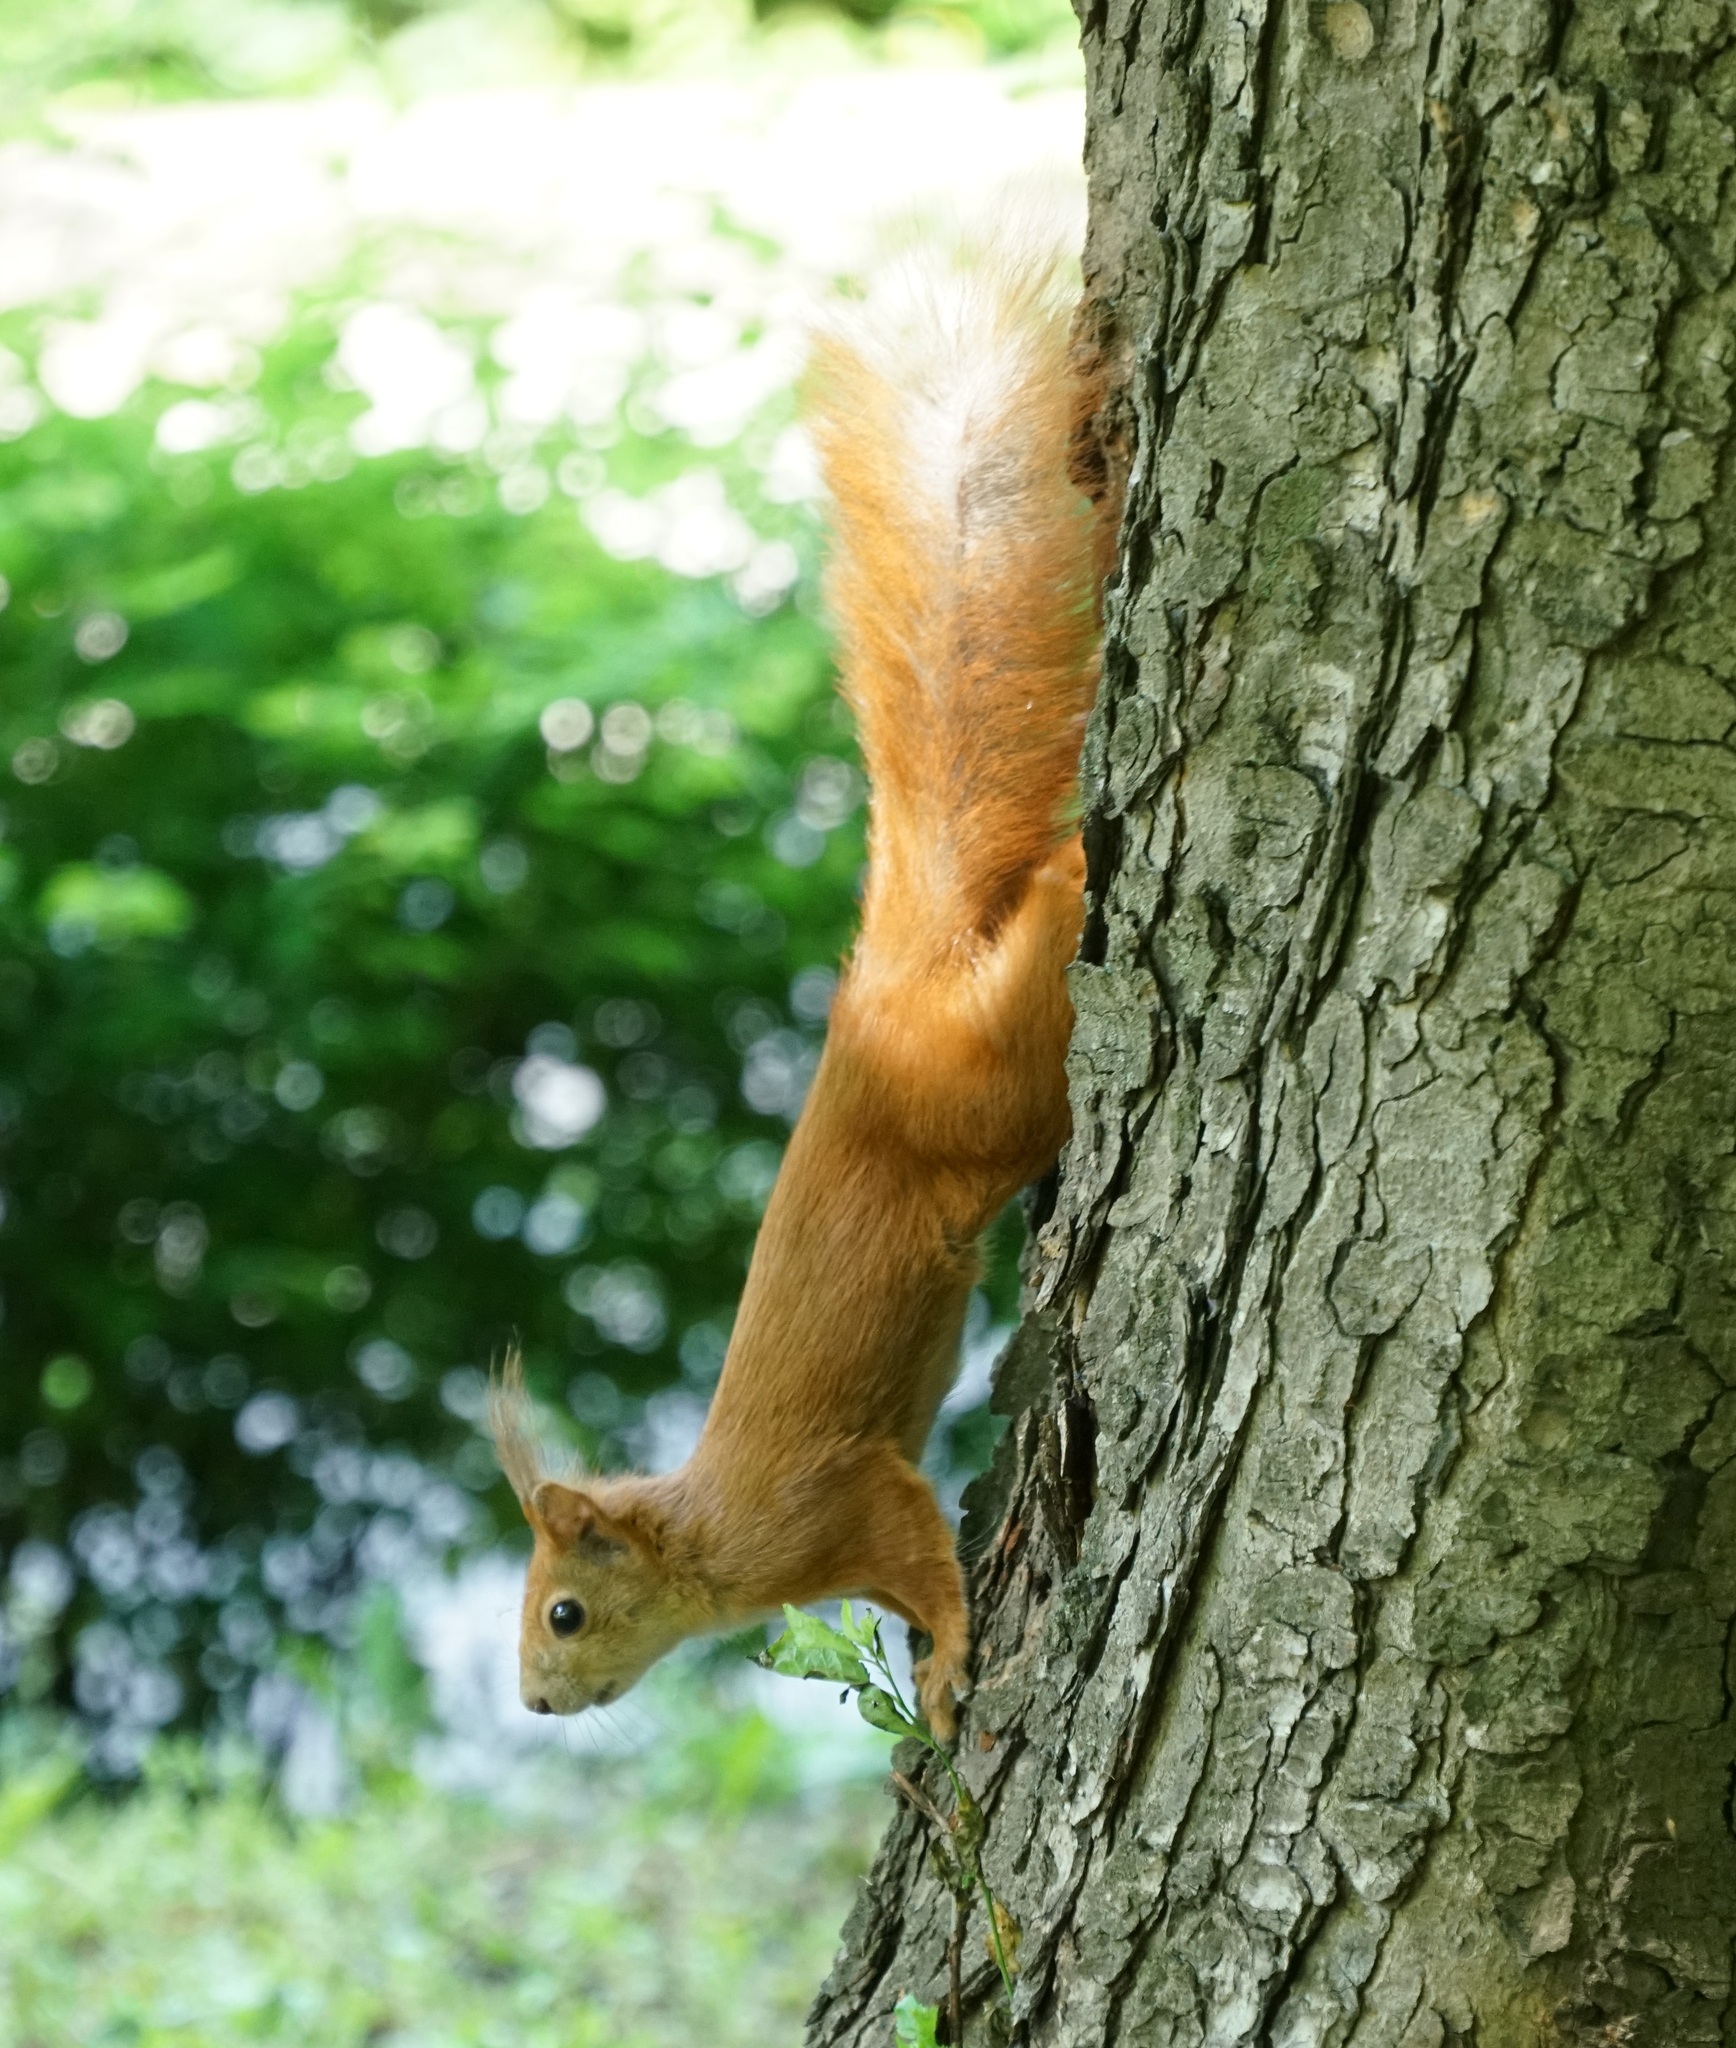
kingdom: Animalia
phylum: Chordata
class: Mammalia
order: Rodentia
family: Sciuridae
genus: Sciurus
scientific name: Sciurus vulgaris
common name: Eurasian red squirrel
